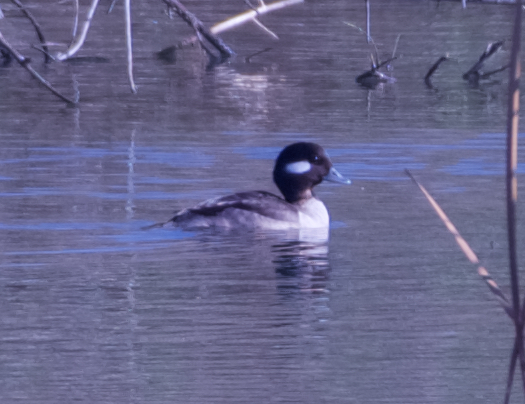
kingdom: Animalia
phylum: Chordata
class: Aves
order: Anseriformes
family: Anatidae
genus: Bucephala
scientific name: Bucephala albeola
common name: Bufflehead
